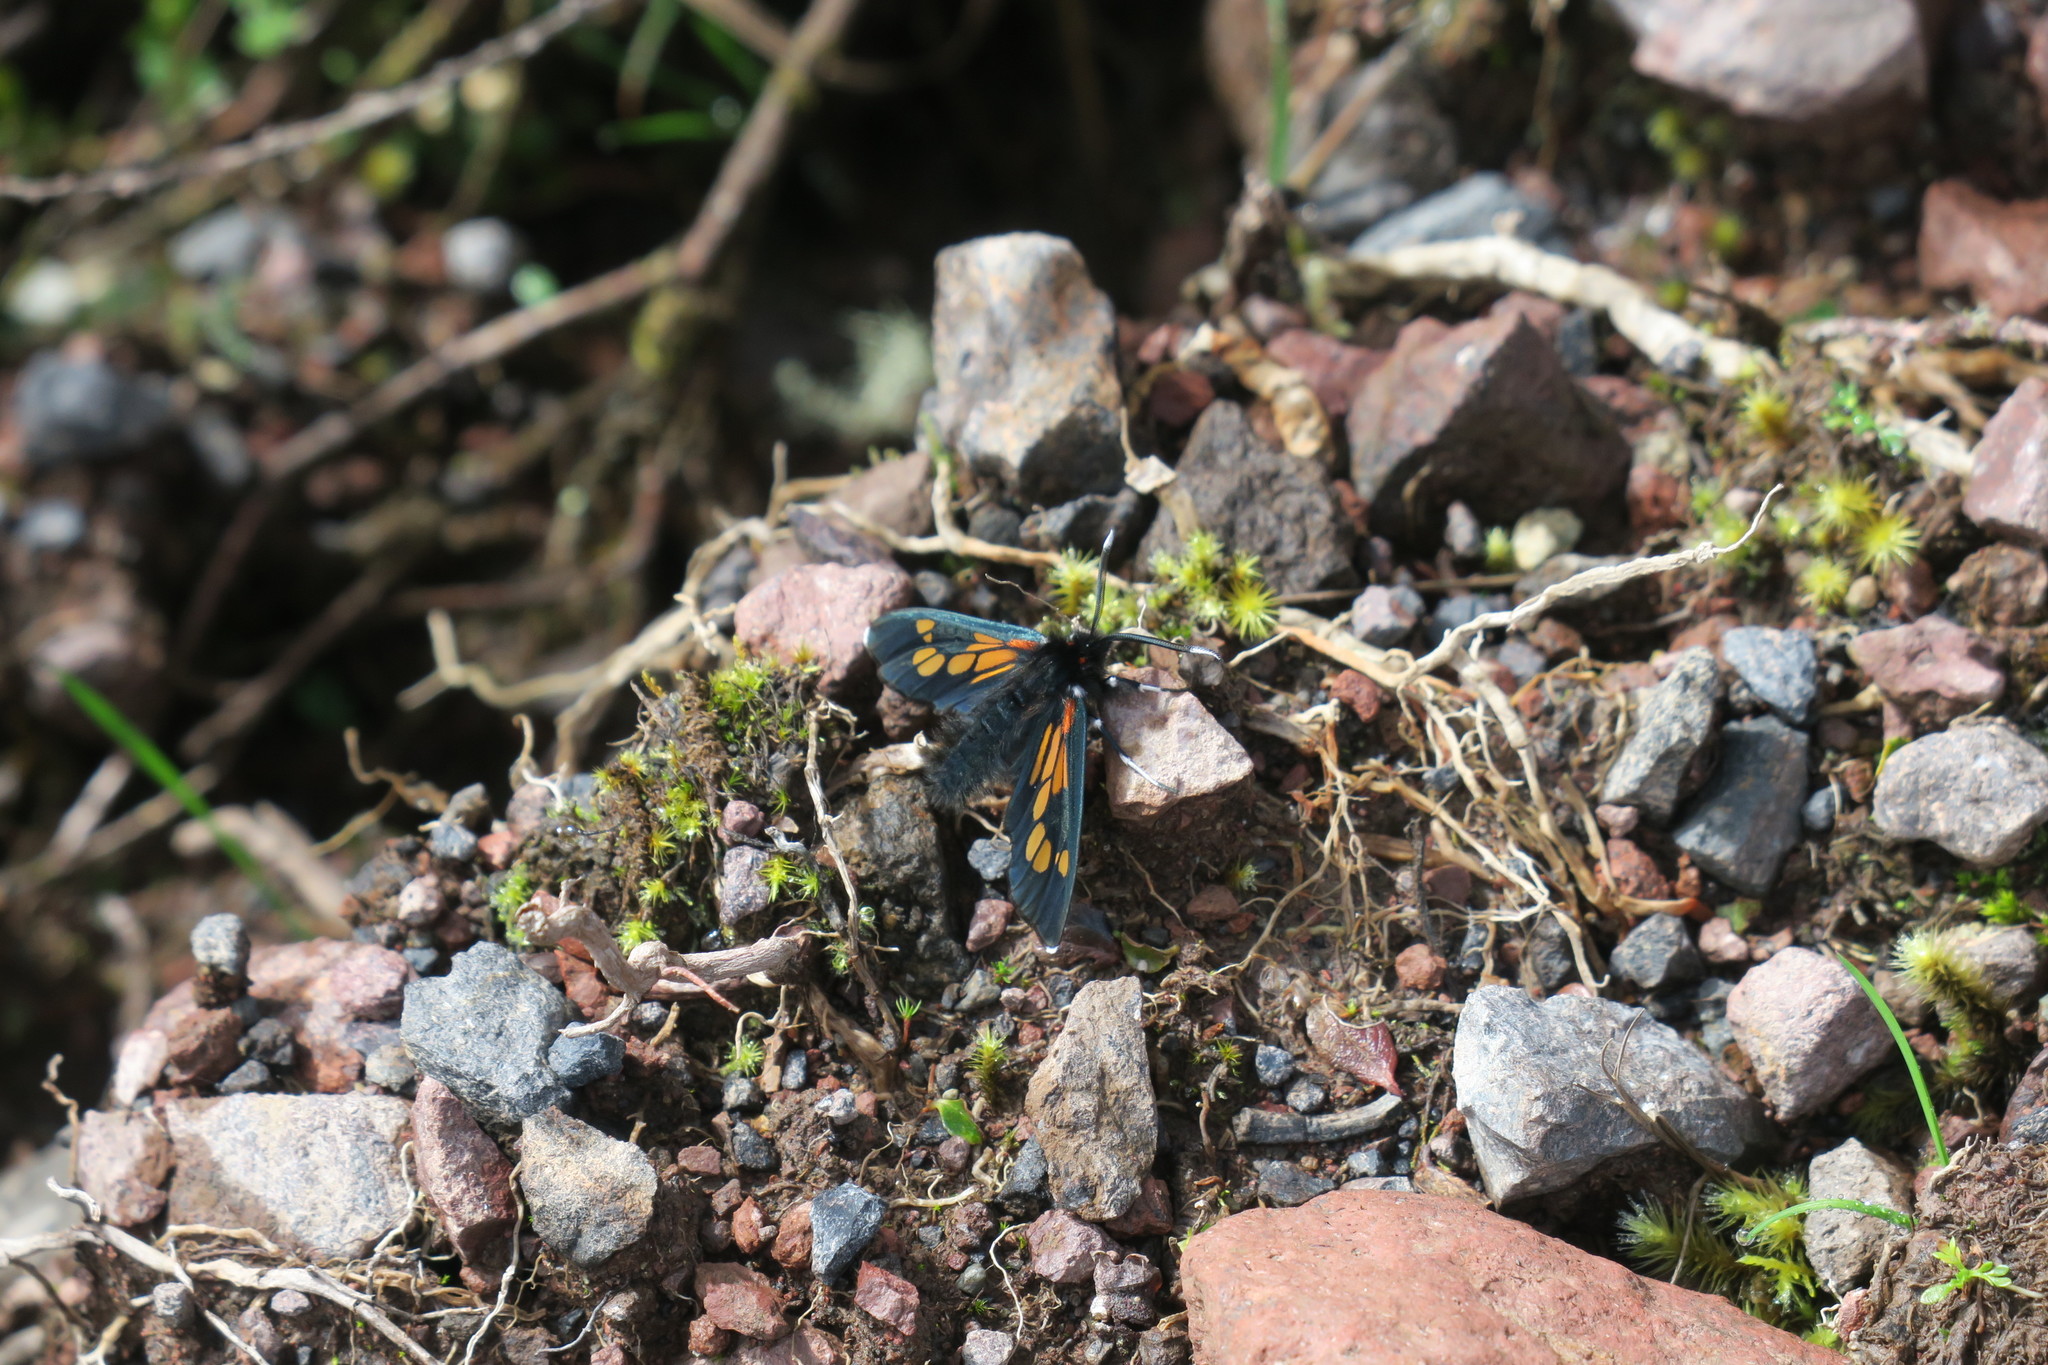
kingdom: Animalia
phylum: Arthropoda
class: Insecta
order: Lepidoptera
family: Erebidae
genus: Enope
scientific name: Enope tolumnensis
